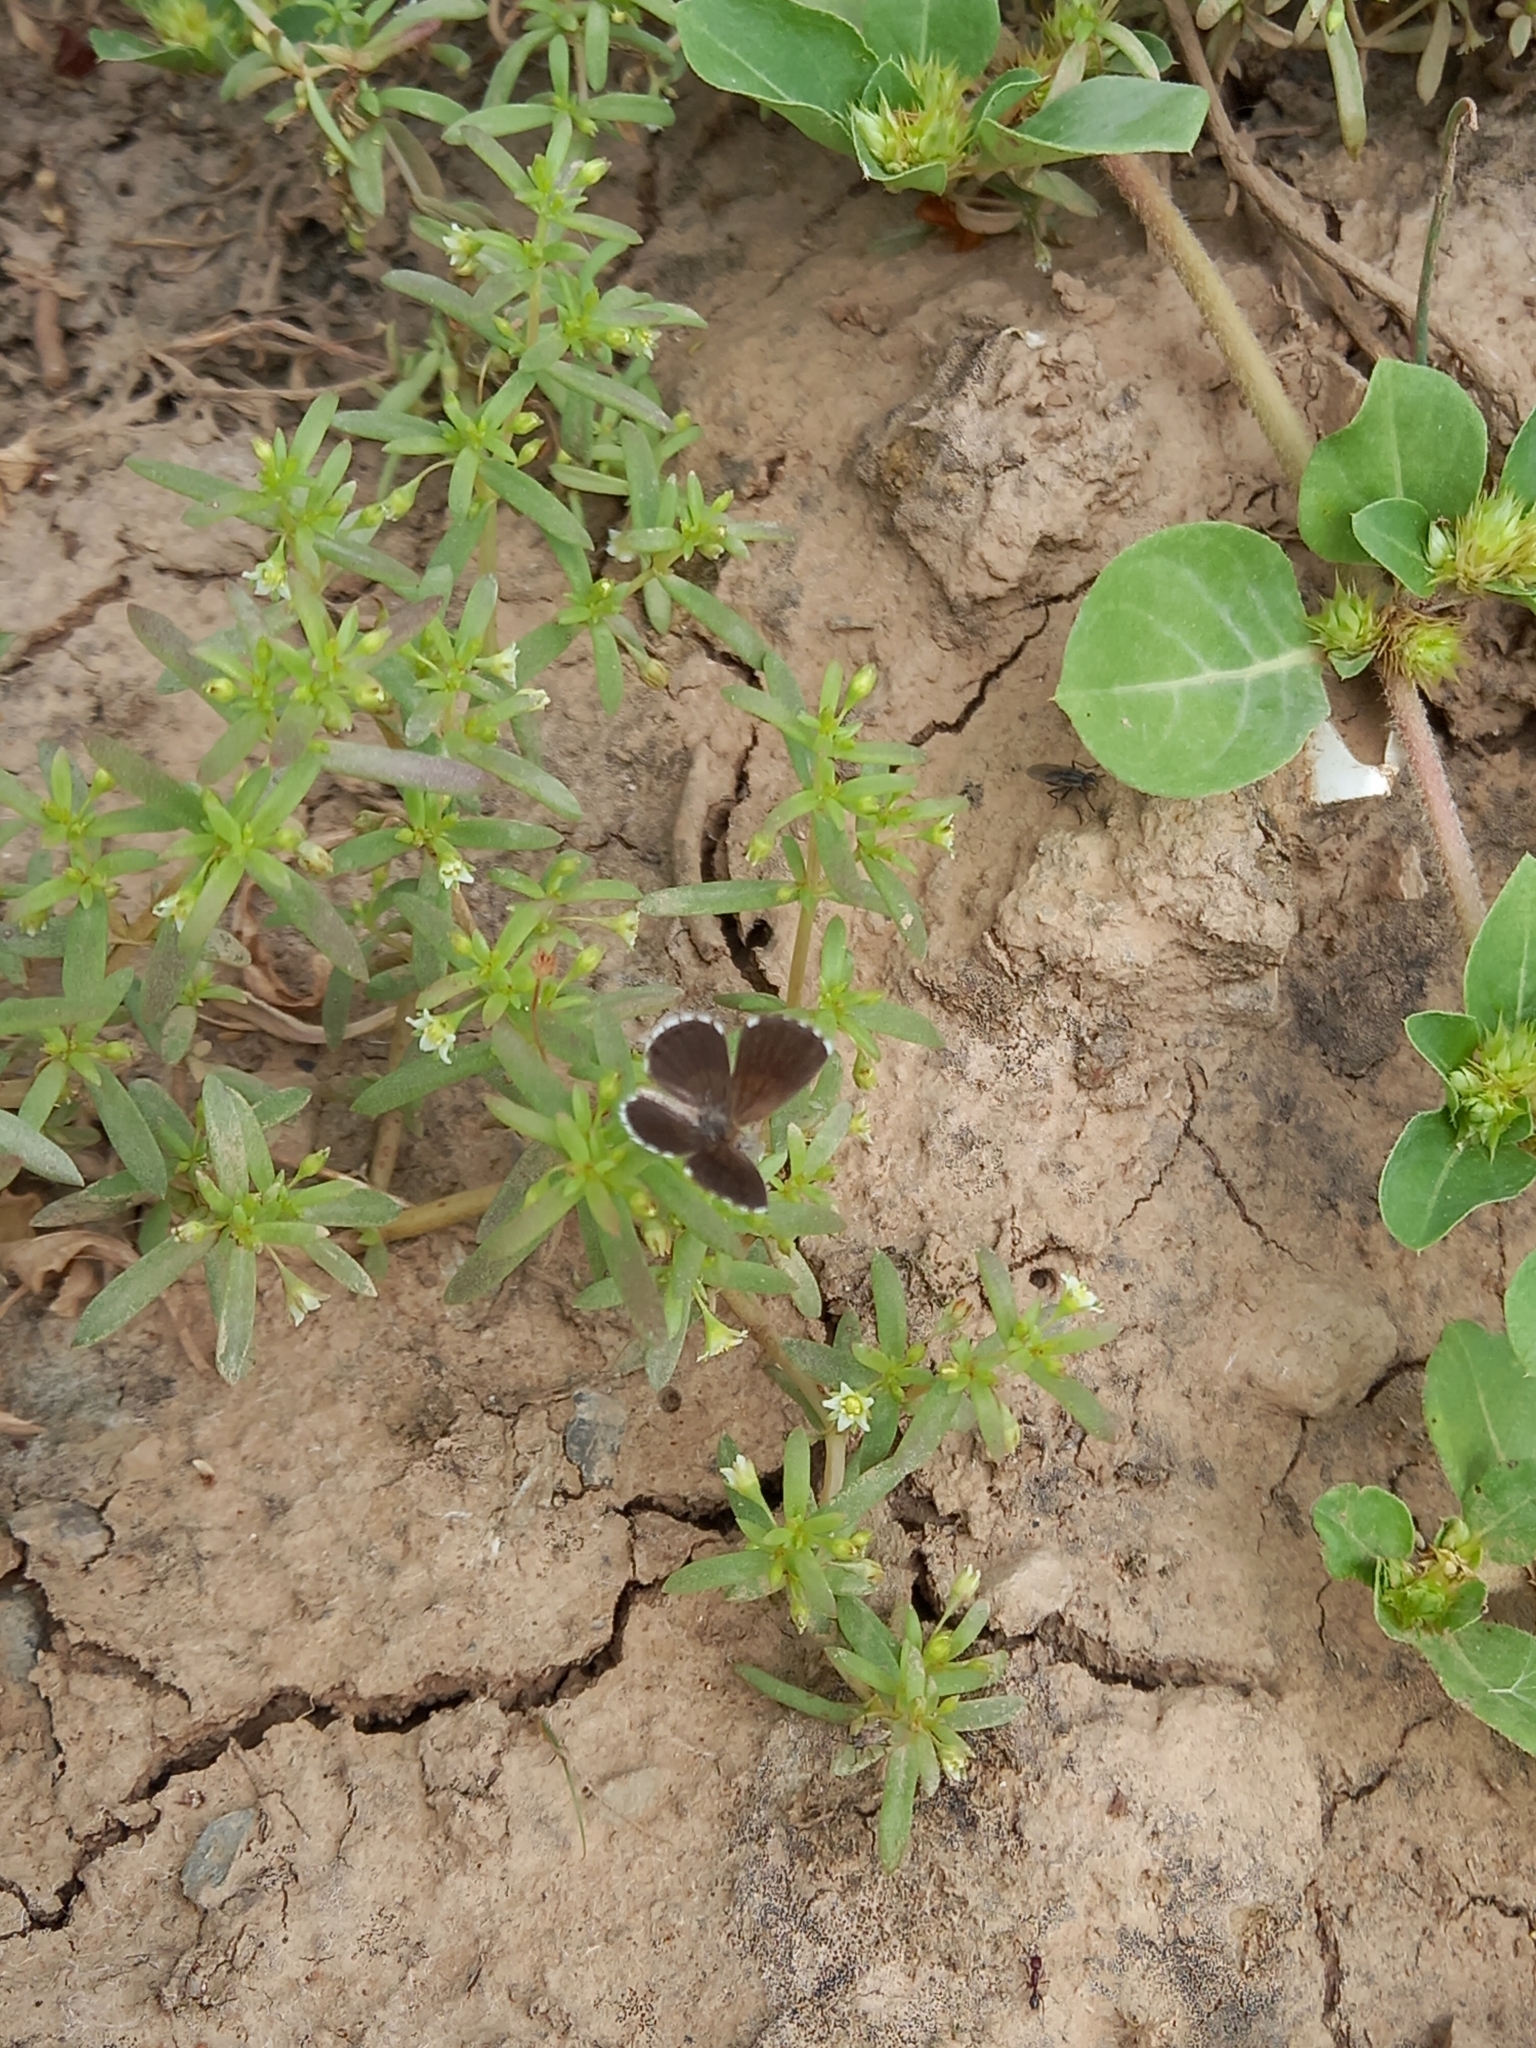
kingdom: Animalia
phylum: Arthropoda
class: Insecta
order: Lepidoptera
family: Lycaenidae
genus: Oraidium
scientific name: Oraidium barberae
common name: Dwarf blue
